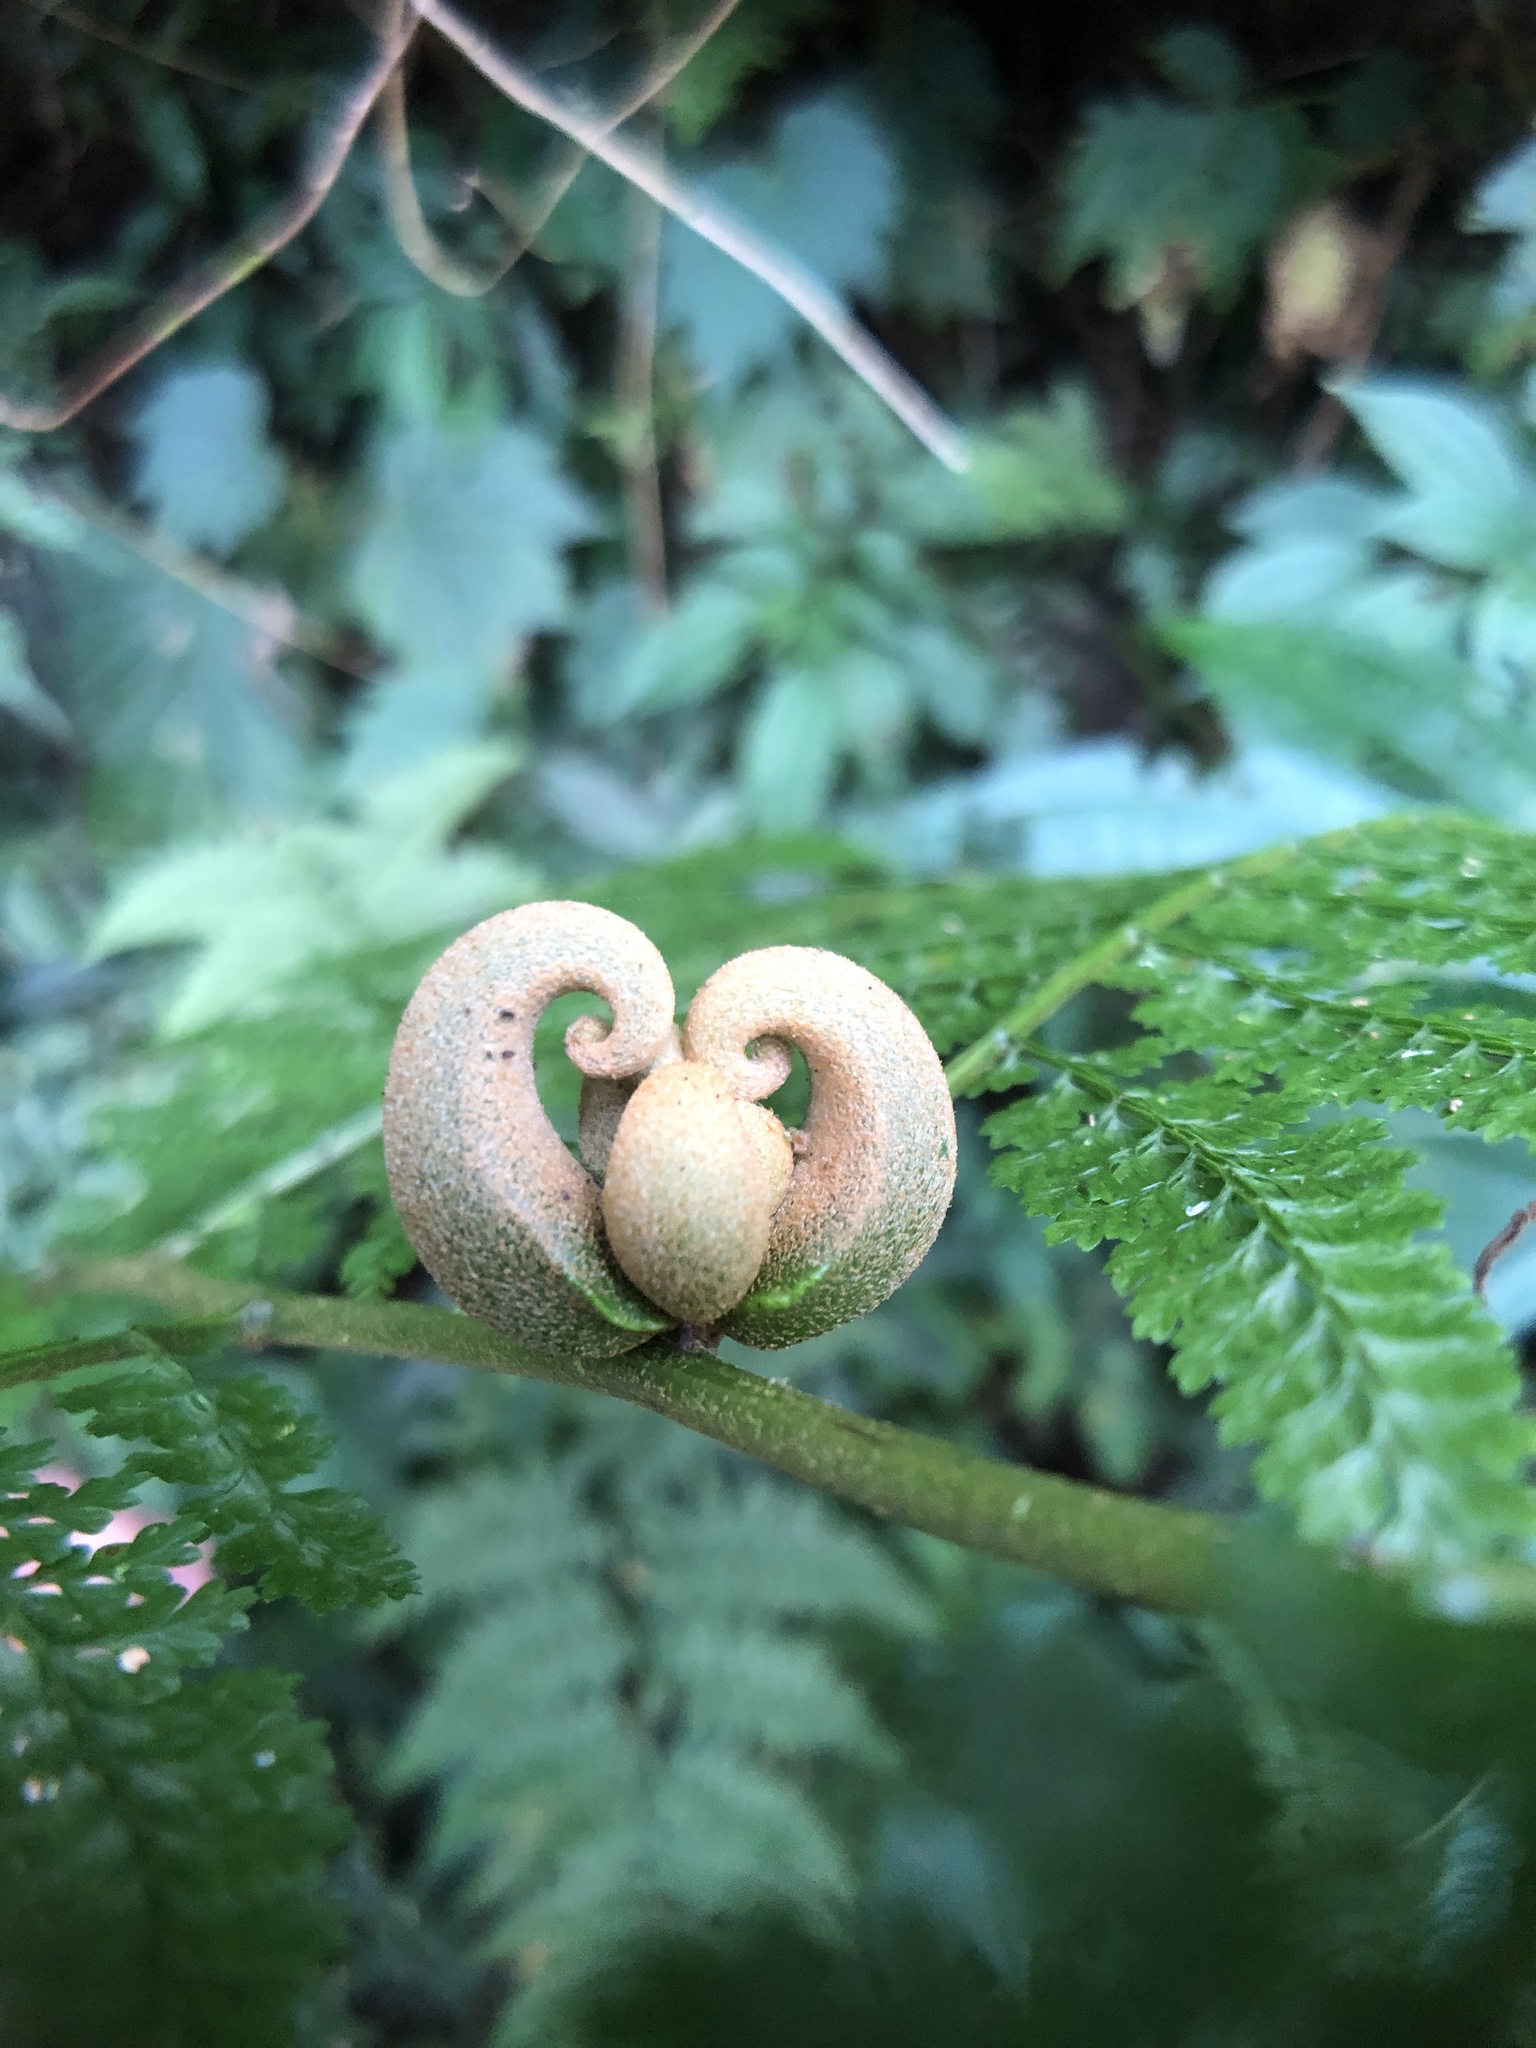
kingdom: Plantae
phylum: Tracheophyta
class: Polypodiopsida
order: Polypodiales
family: Dennstaedtiaceae
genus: Monachosorum
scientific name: Monachosorum henryi
